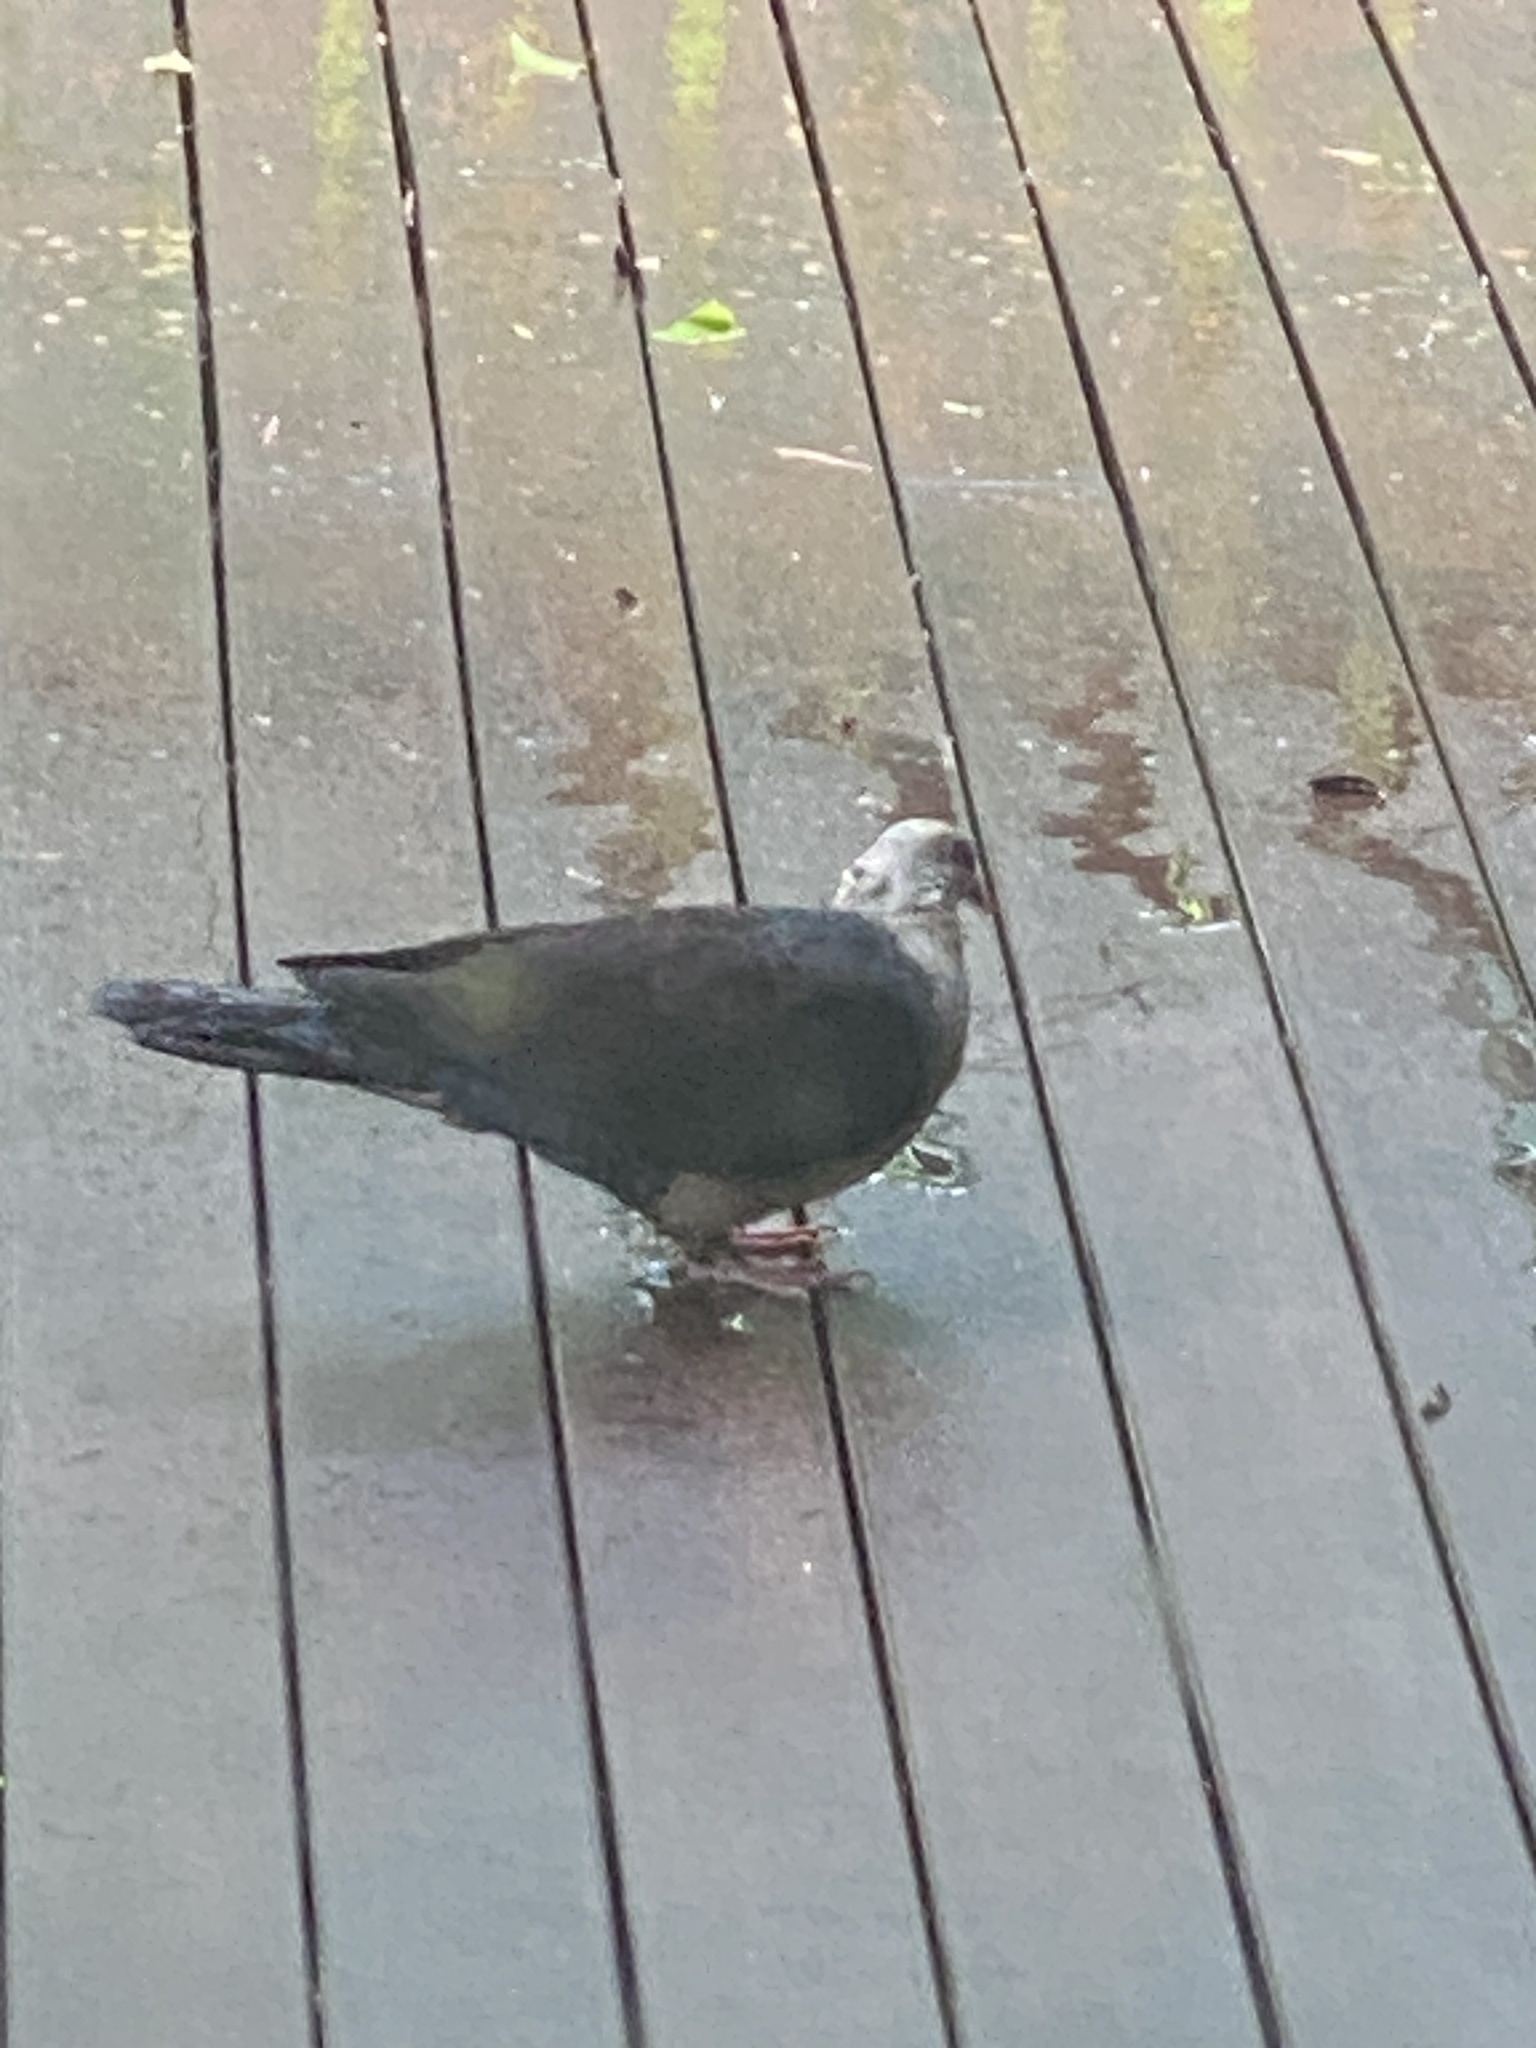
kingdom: Animalia
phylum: Chordata
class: Aves
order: Columbiformes
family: Columbidae
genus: Columba
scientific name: Columba leucomela
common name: White-headed pigeon
